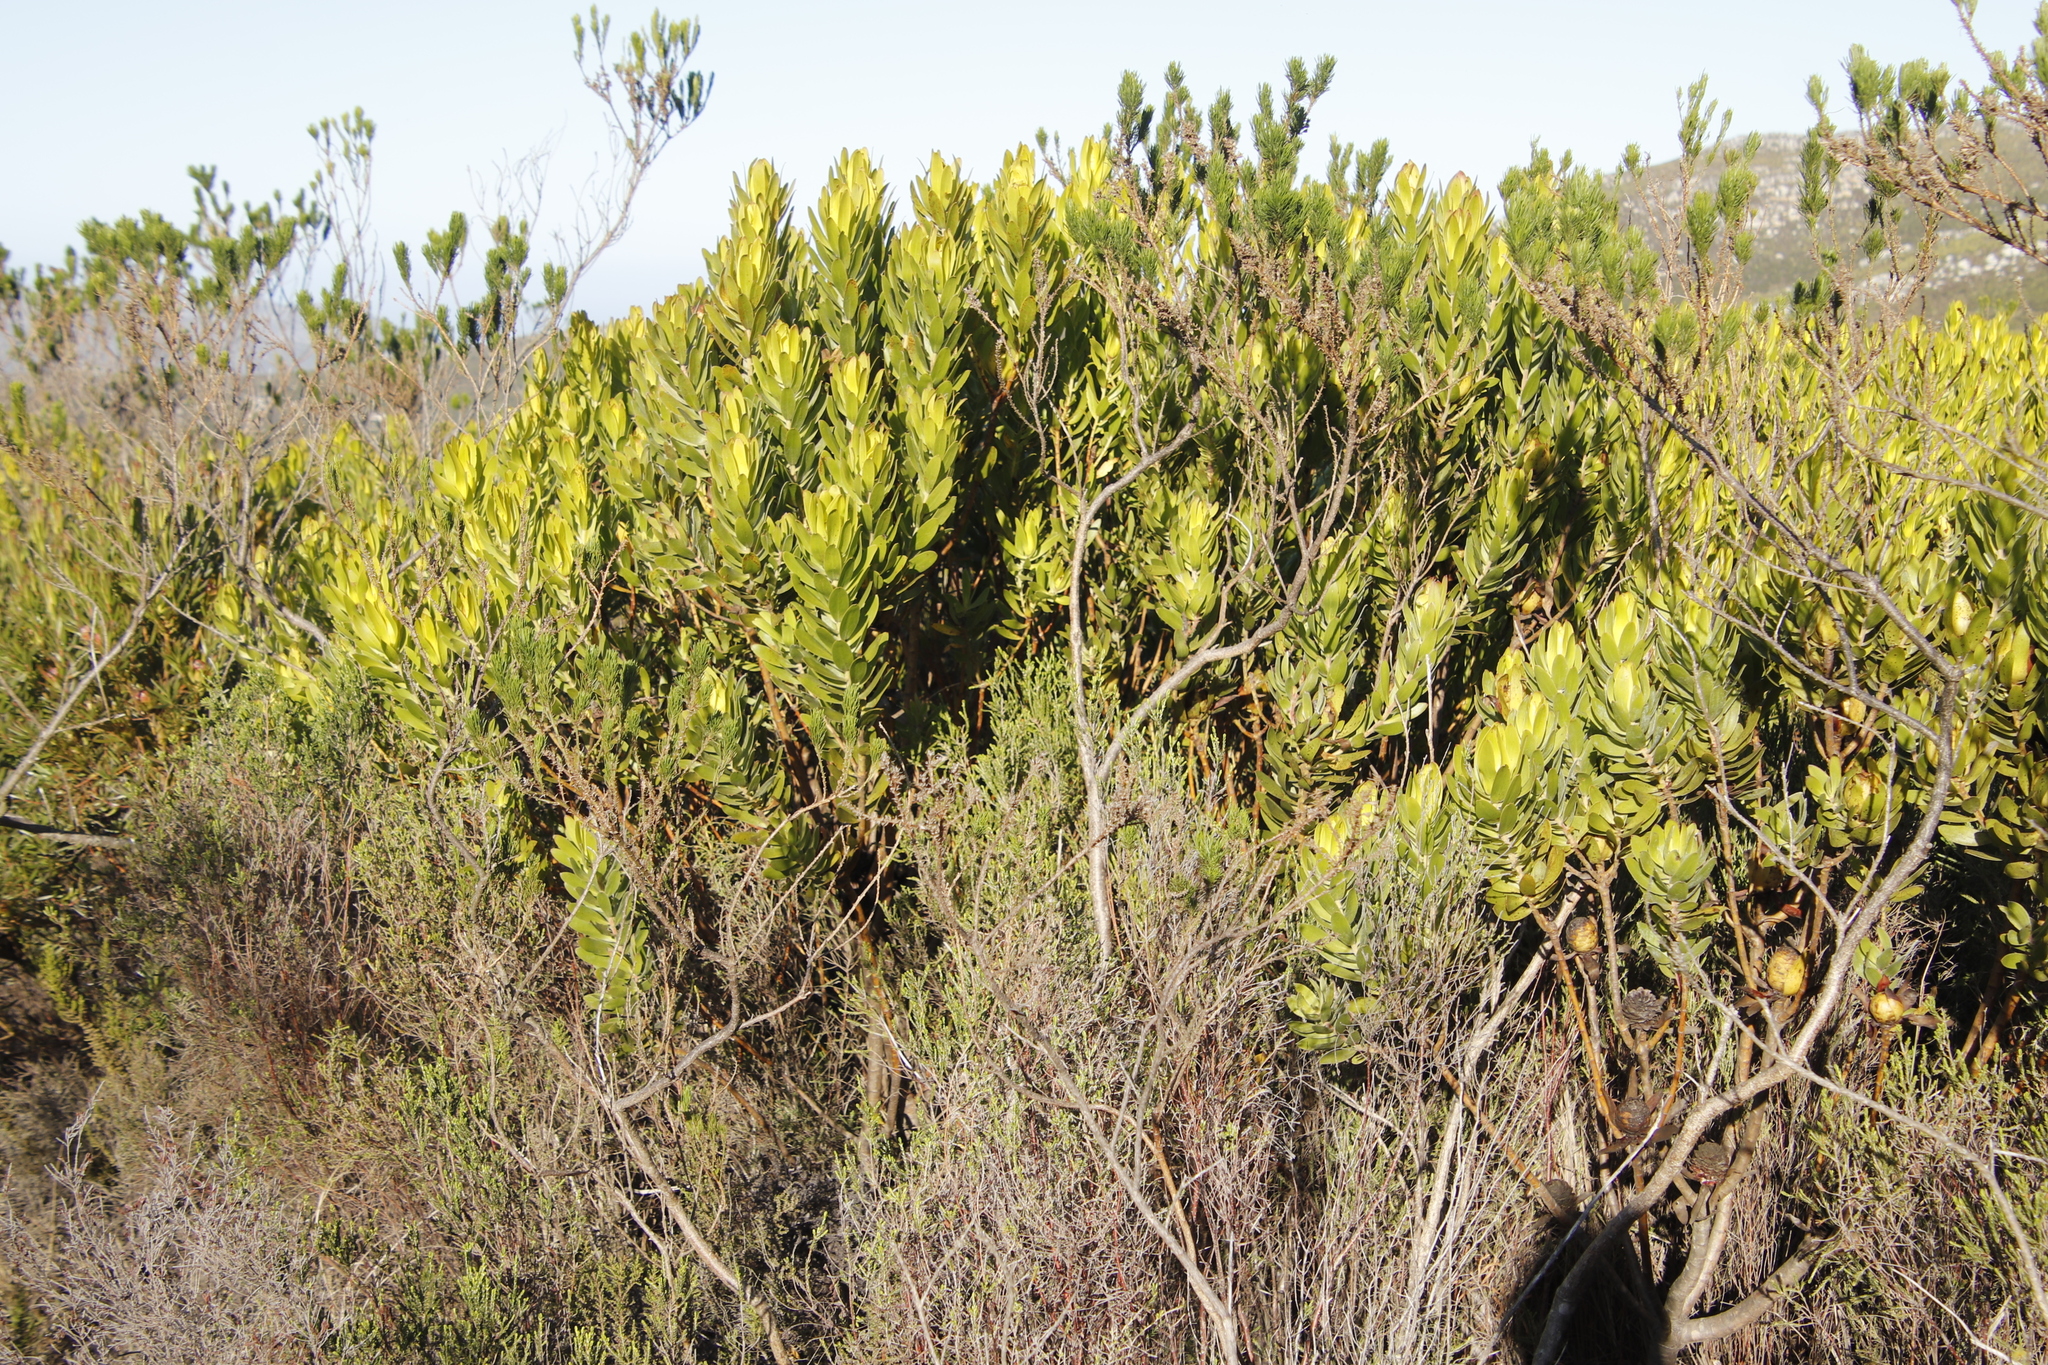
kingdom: Plantae
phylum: Tracheophyta
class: Magnoliopsida
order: Fabales
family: Fabaceae
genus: Psoralea
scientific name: Psoralea pinnata
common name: African scurfpea
